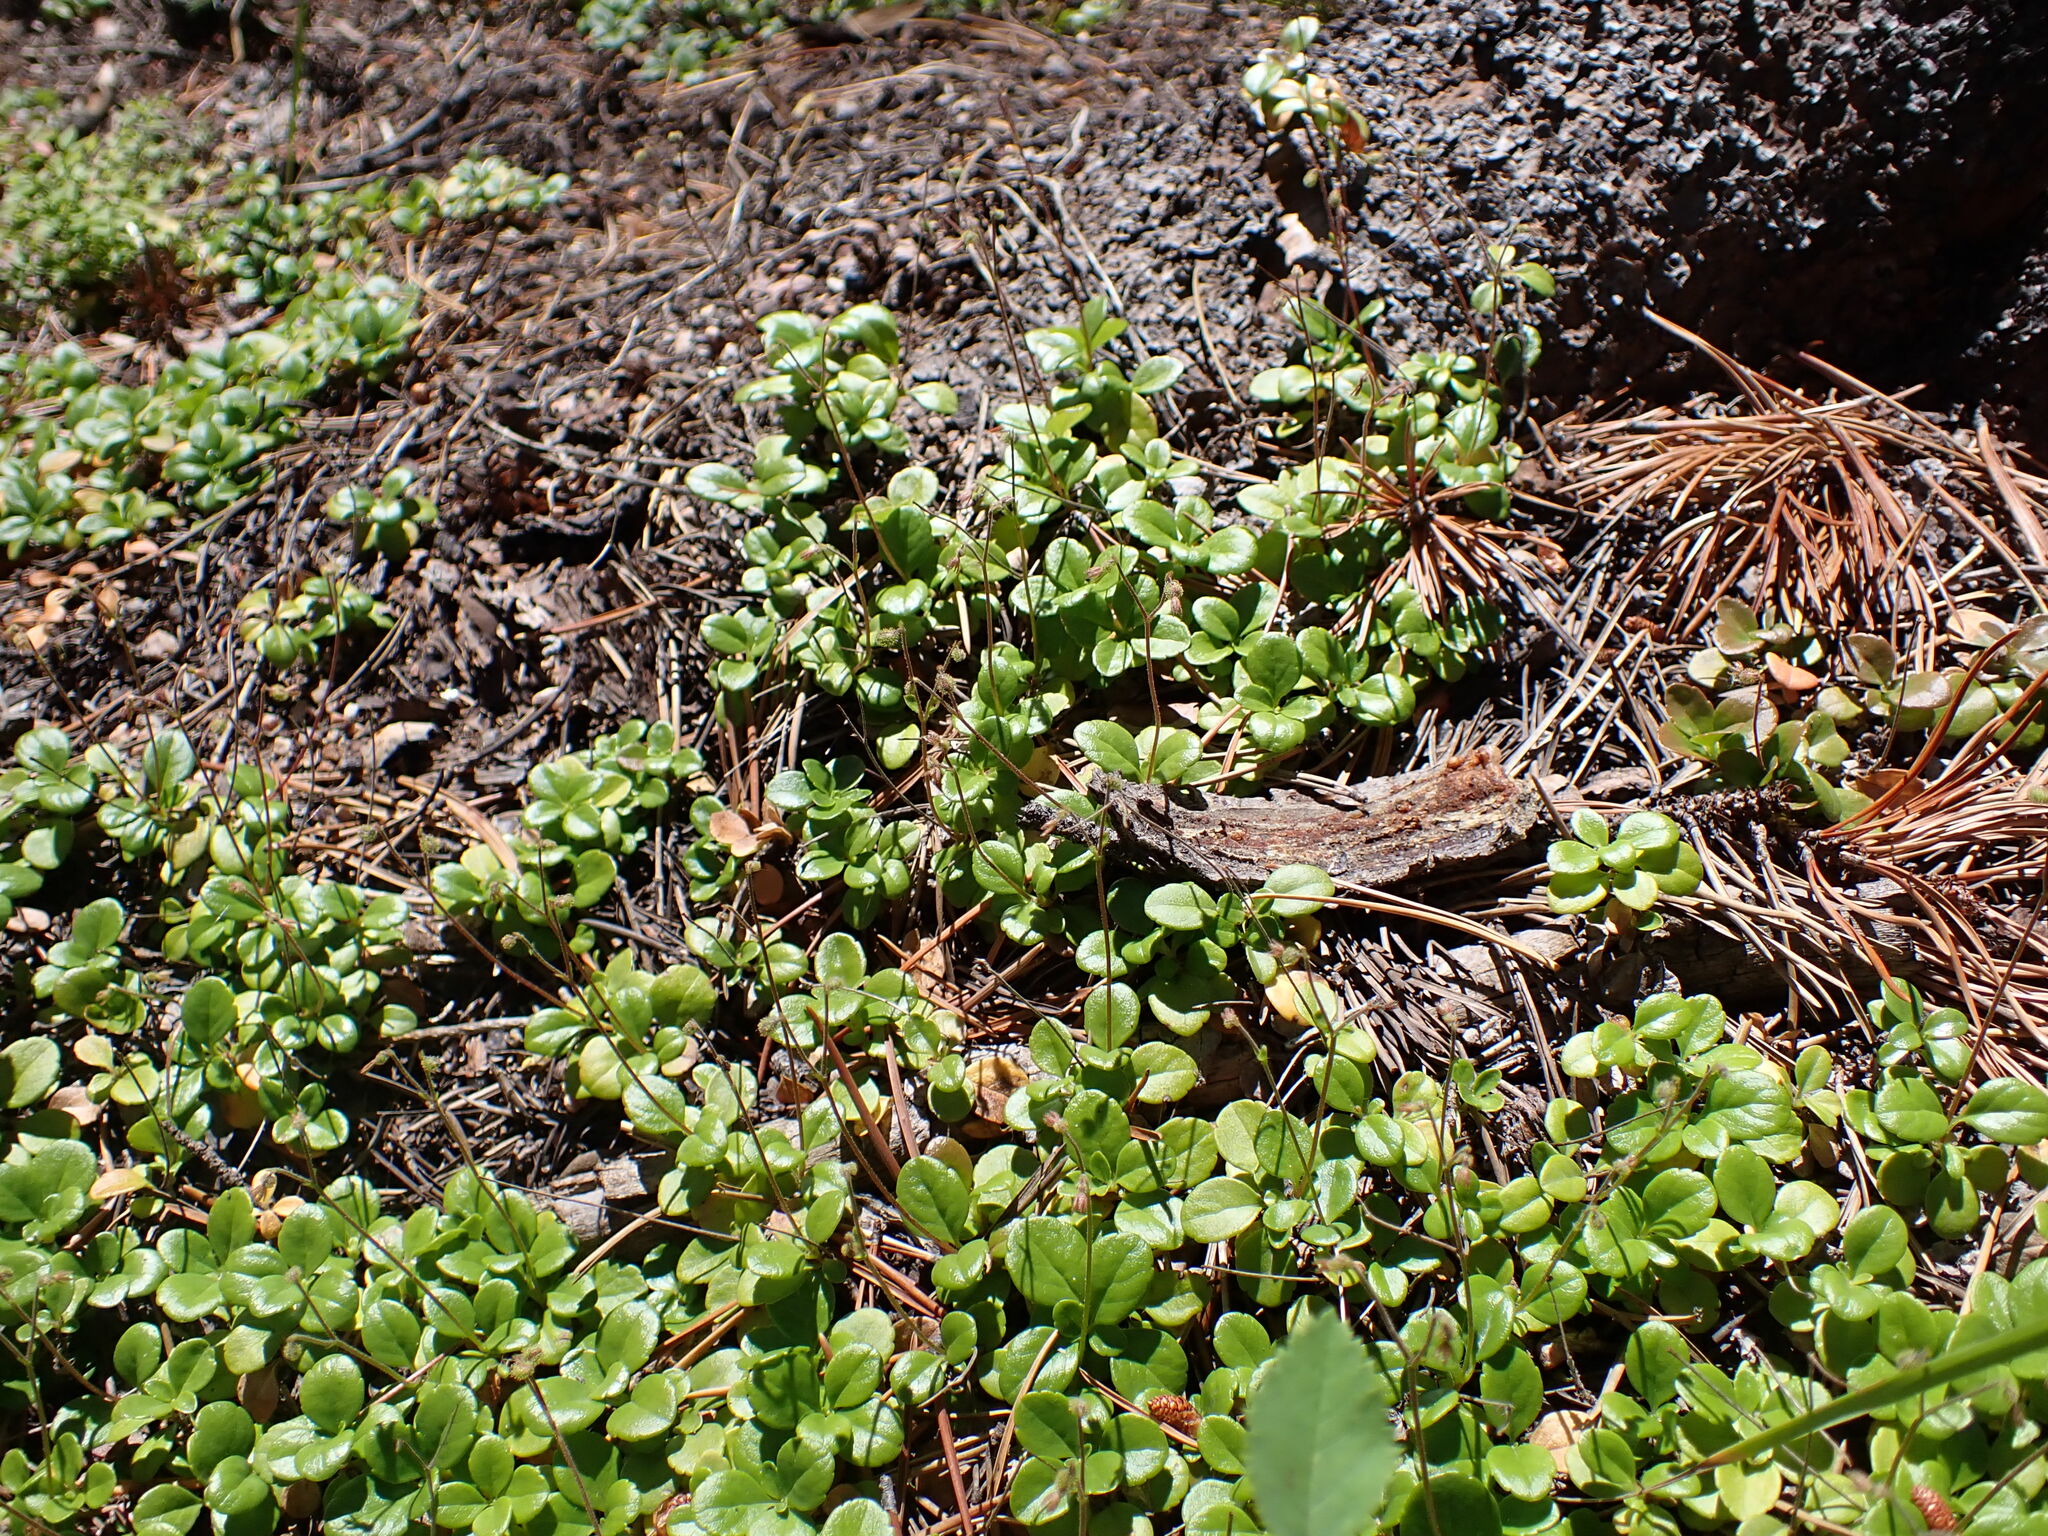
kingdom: Plantae
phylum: Tracheophyta
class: Magnoliopsida
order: Dipsacales
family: Caprifoliaceae
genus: Linnaea
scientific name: Linnaea borealis
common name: Twinflower
